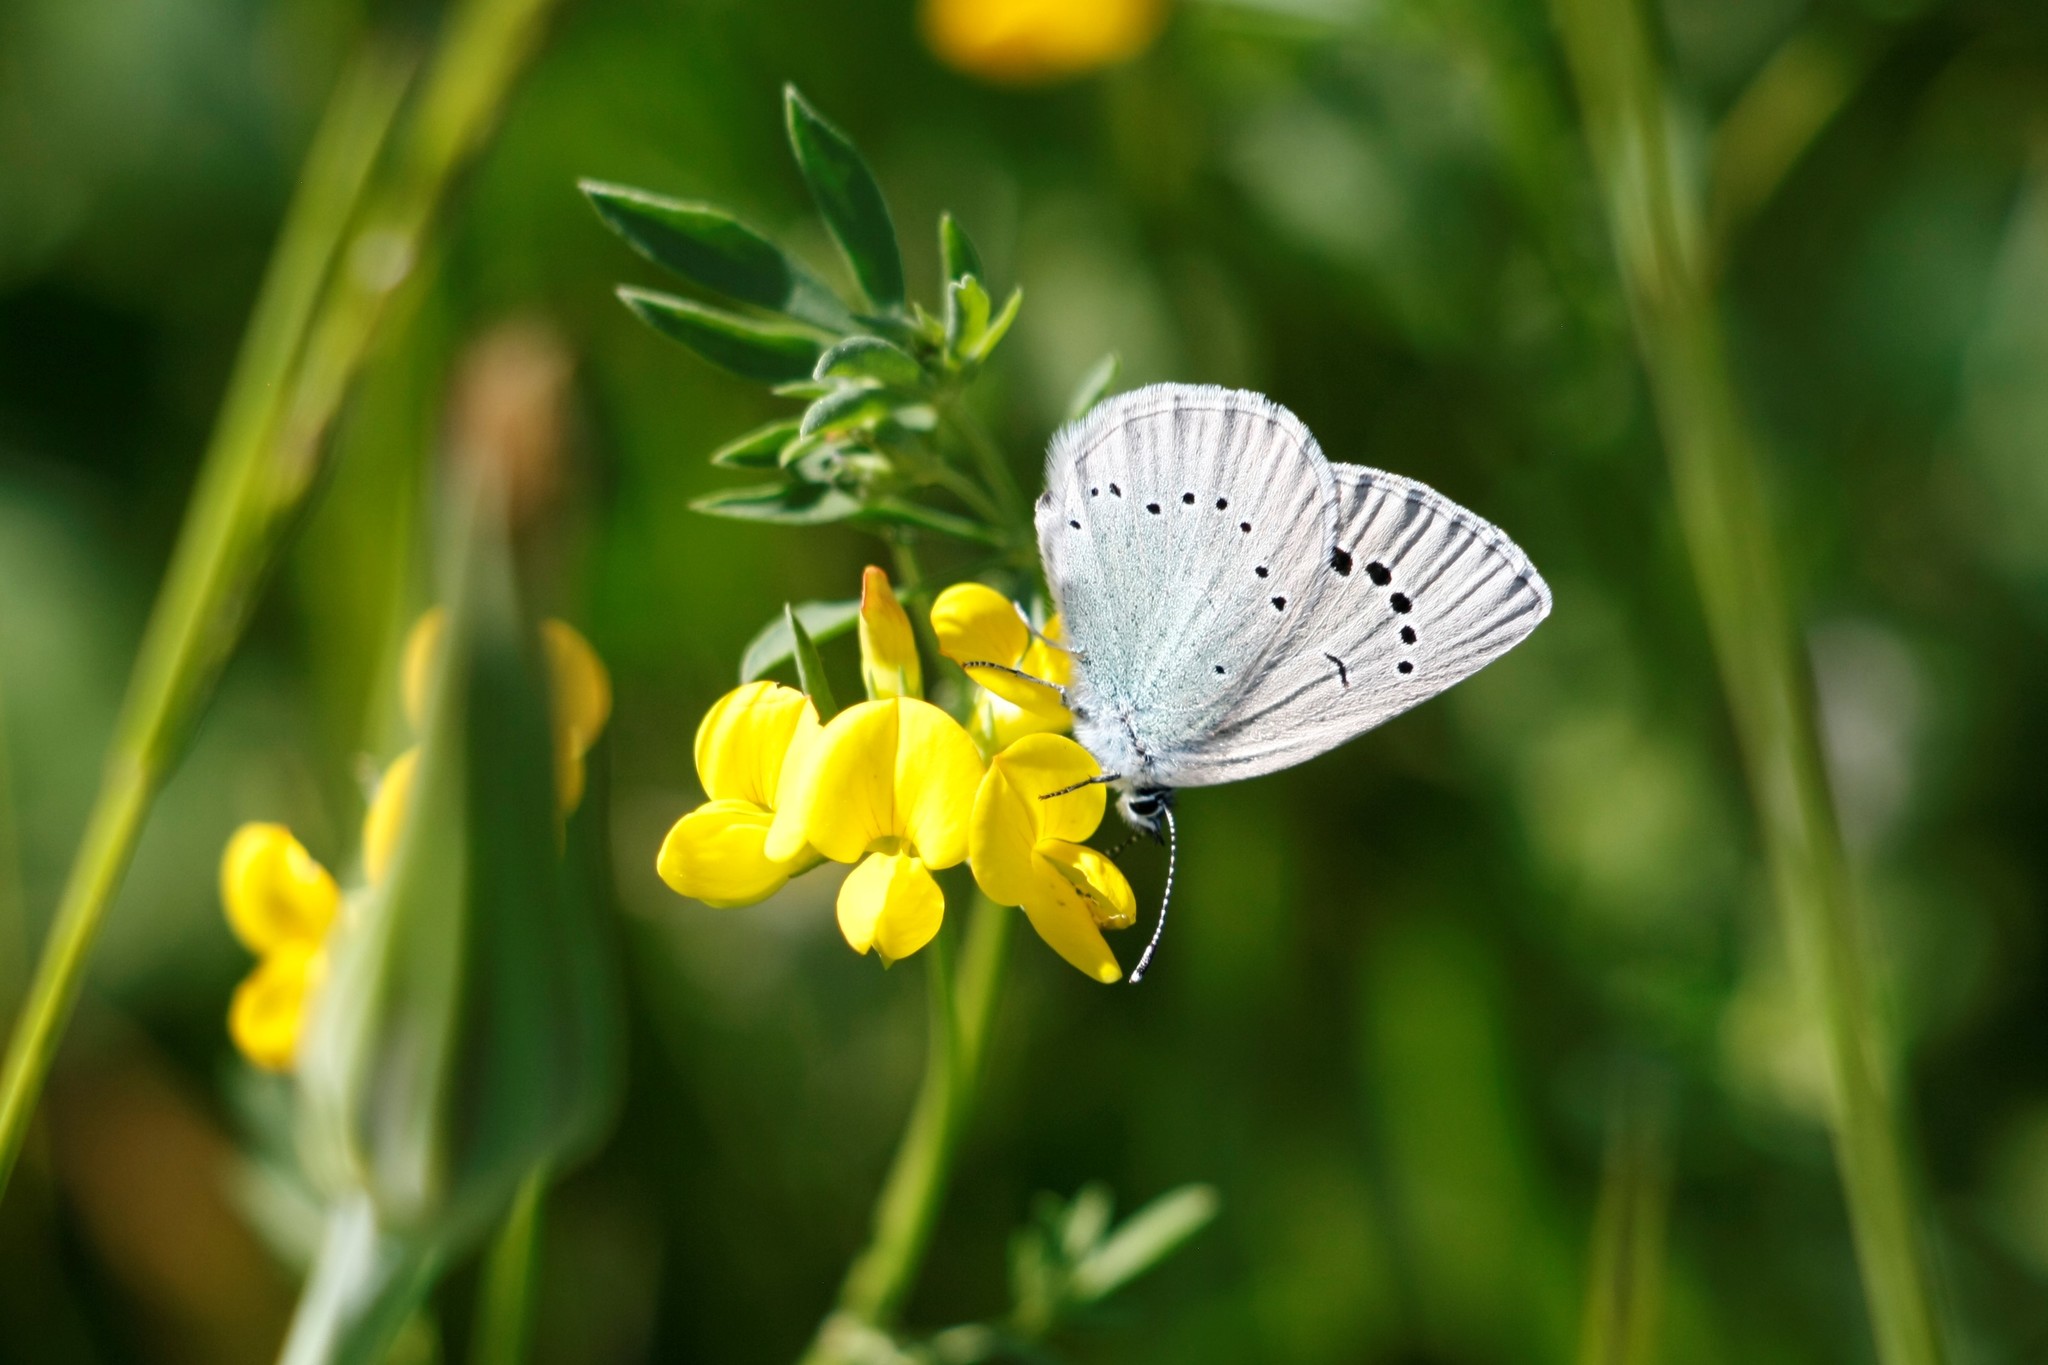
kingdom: Animalia
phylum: Arthropoda
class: Insecta
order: Lepidoptera
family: Lycaenidae
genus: Glaucopsyche
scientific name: Glaucopsyche alexis
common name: Green-underside blue
